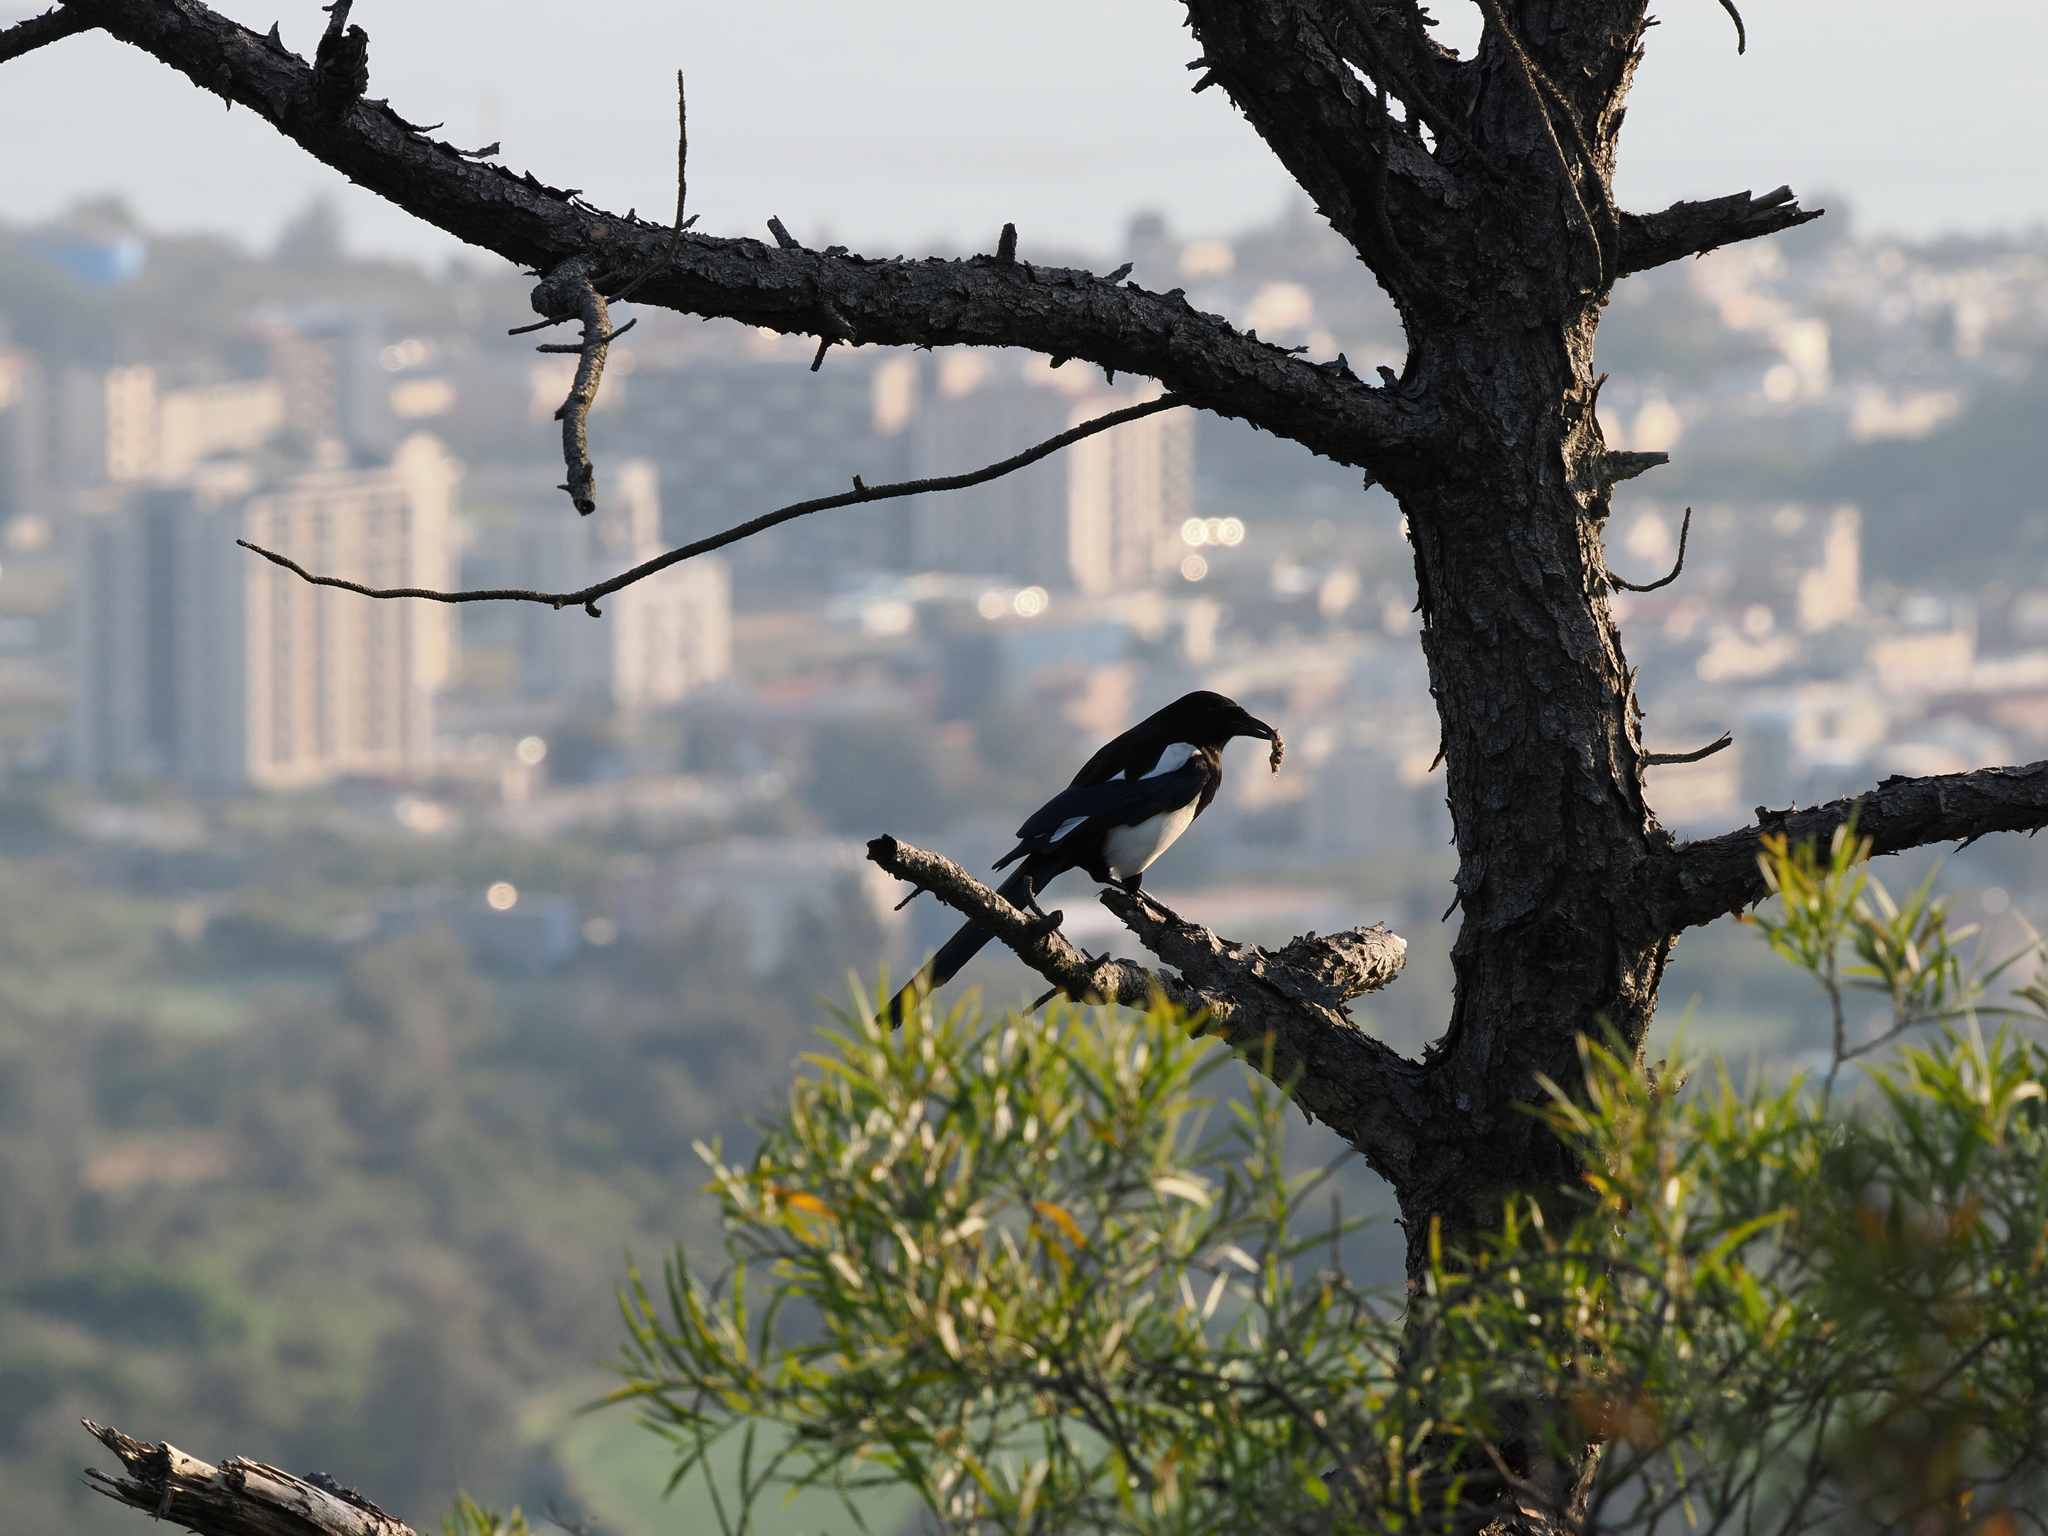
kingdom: Animalia
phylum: Chordata
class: Aves
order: Passeriformes
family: Corvidae
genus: Pica
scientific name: Pica serica
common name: Oriental magpie
